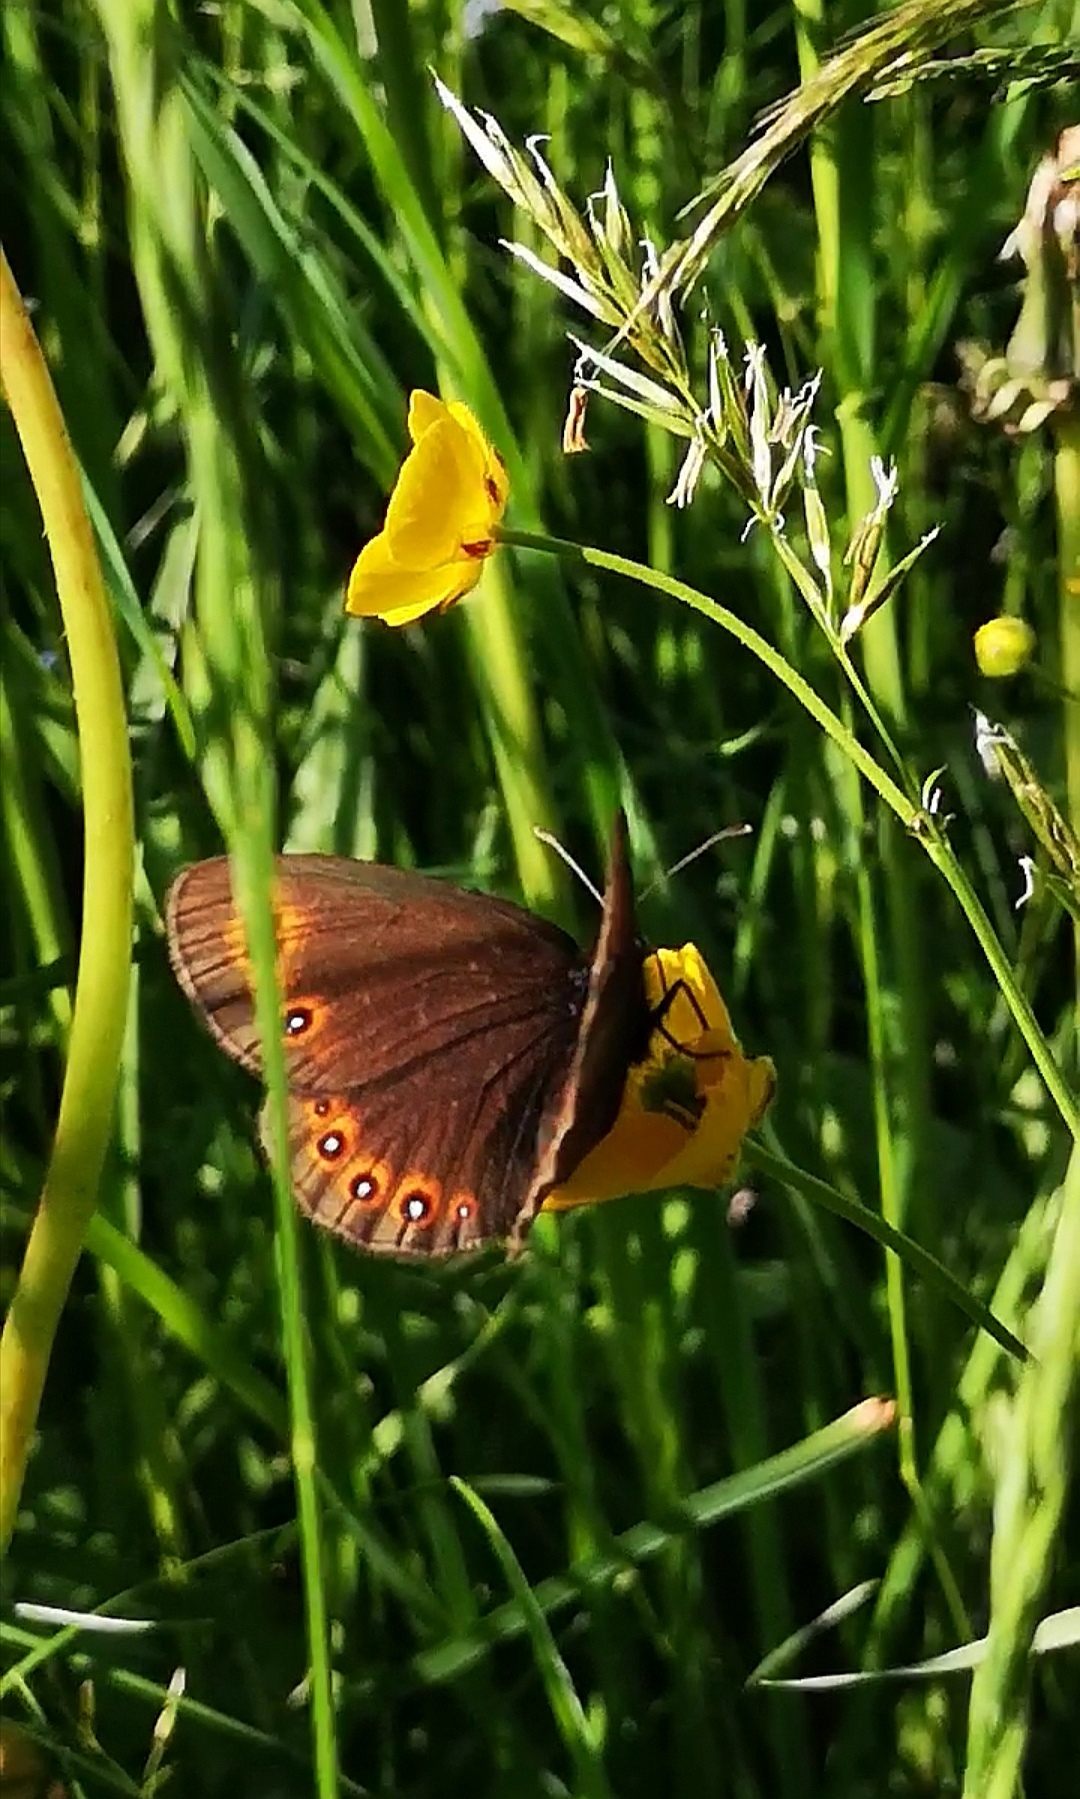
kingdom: Animalia
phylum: Arthropoda
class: Insecta
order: Lepidoptera
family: Nymphalidae
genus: Erebia
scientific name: Erebia medusa
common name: Woodland ringlet
